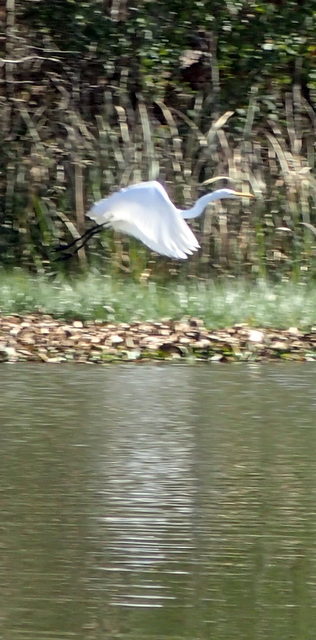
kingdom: Animalia
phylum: Chordata
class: Aves
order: Pelecaniformes
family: Ardeidae
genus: Ardea
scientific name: Ardea alba
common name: Great egret
